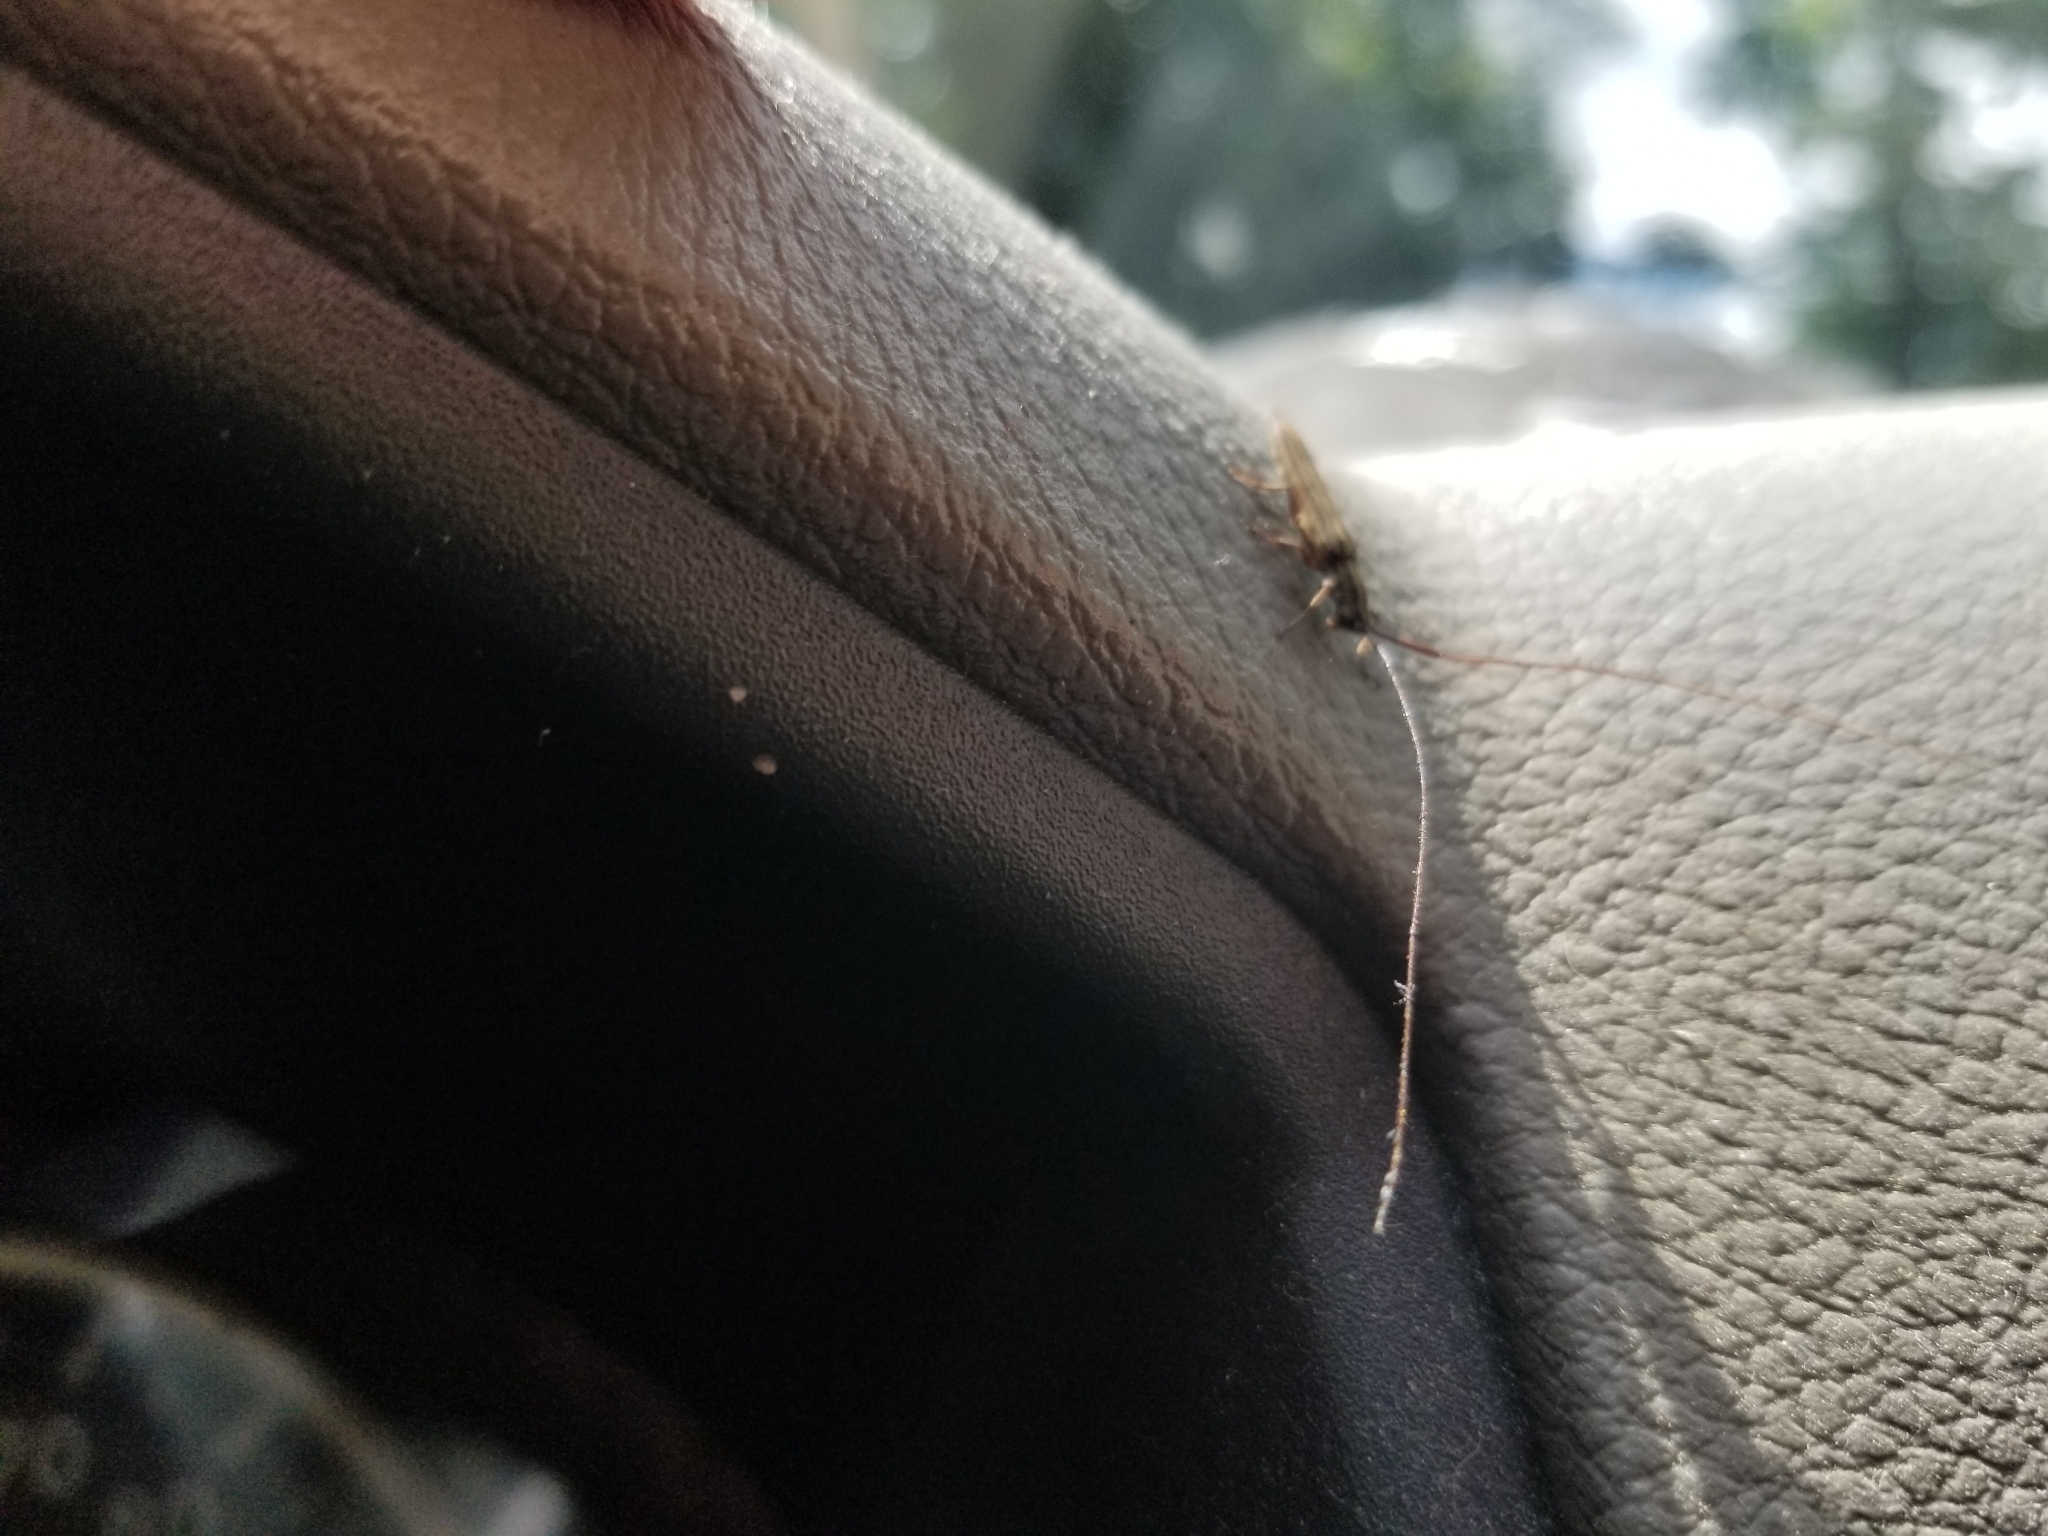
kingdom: Animalia
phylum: Arthropoda
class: Insecta
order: Coleoptera
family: Cerambycidae
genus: Hippopsis
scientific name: Hippopsis
